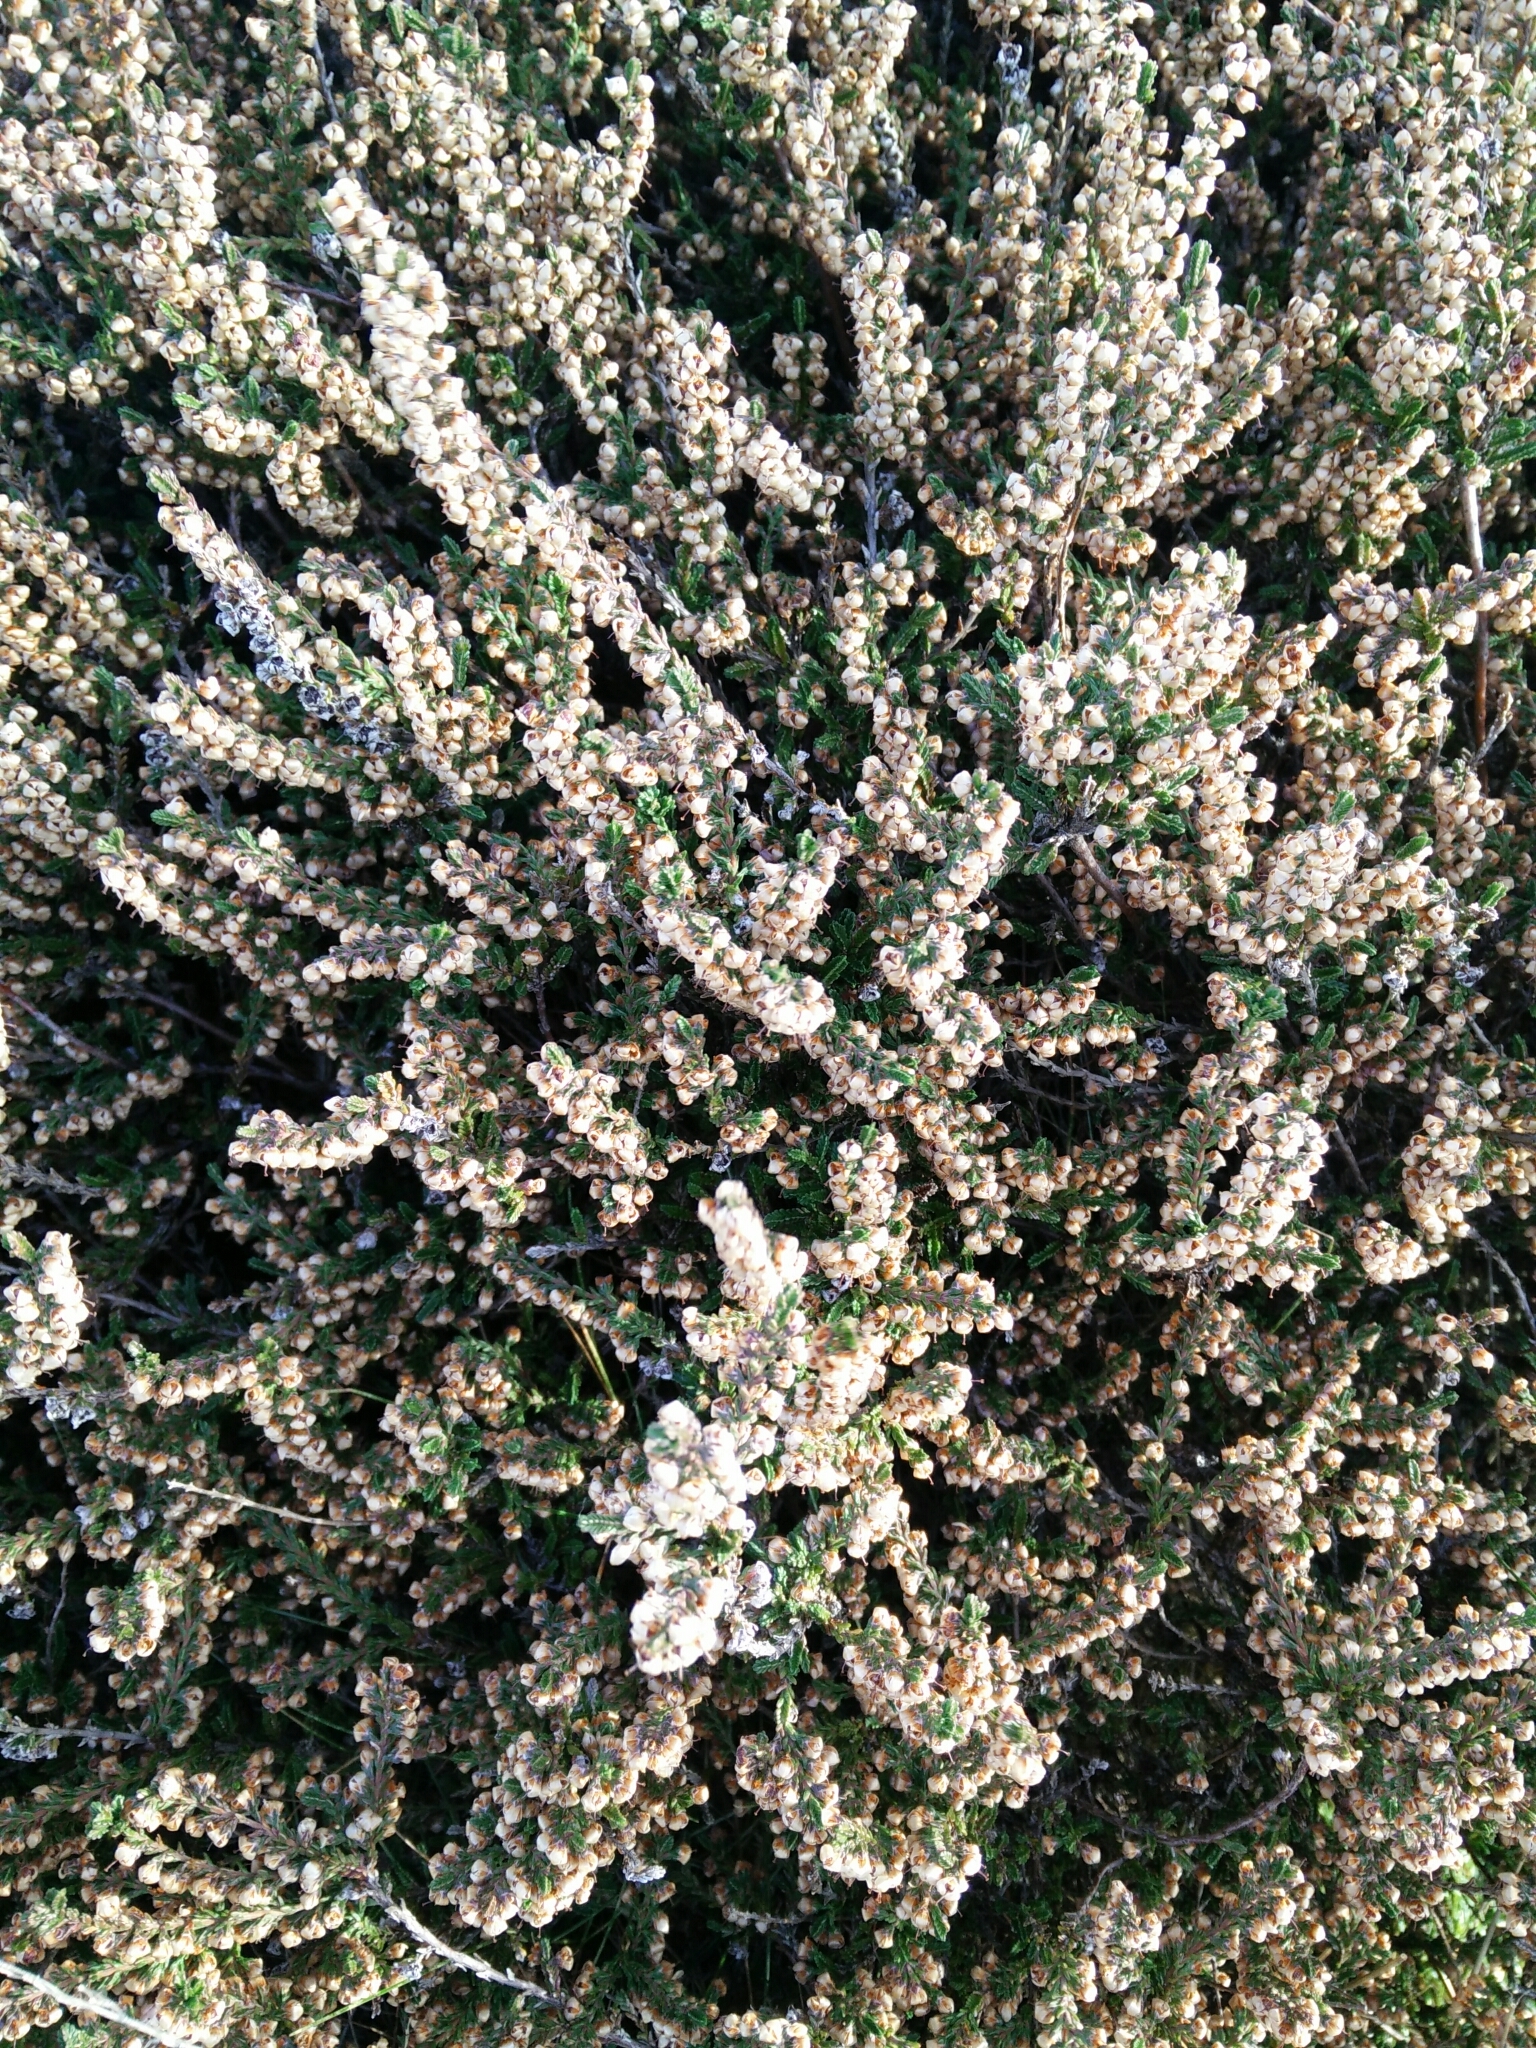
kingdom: Plantae
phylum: Tracheophyta
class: Magnoliopsida
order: Ericales
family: Ericaceae
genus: Calluna
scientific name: Calluna vulgaris
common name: Heather
